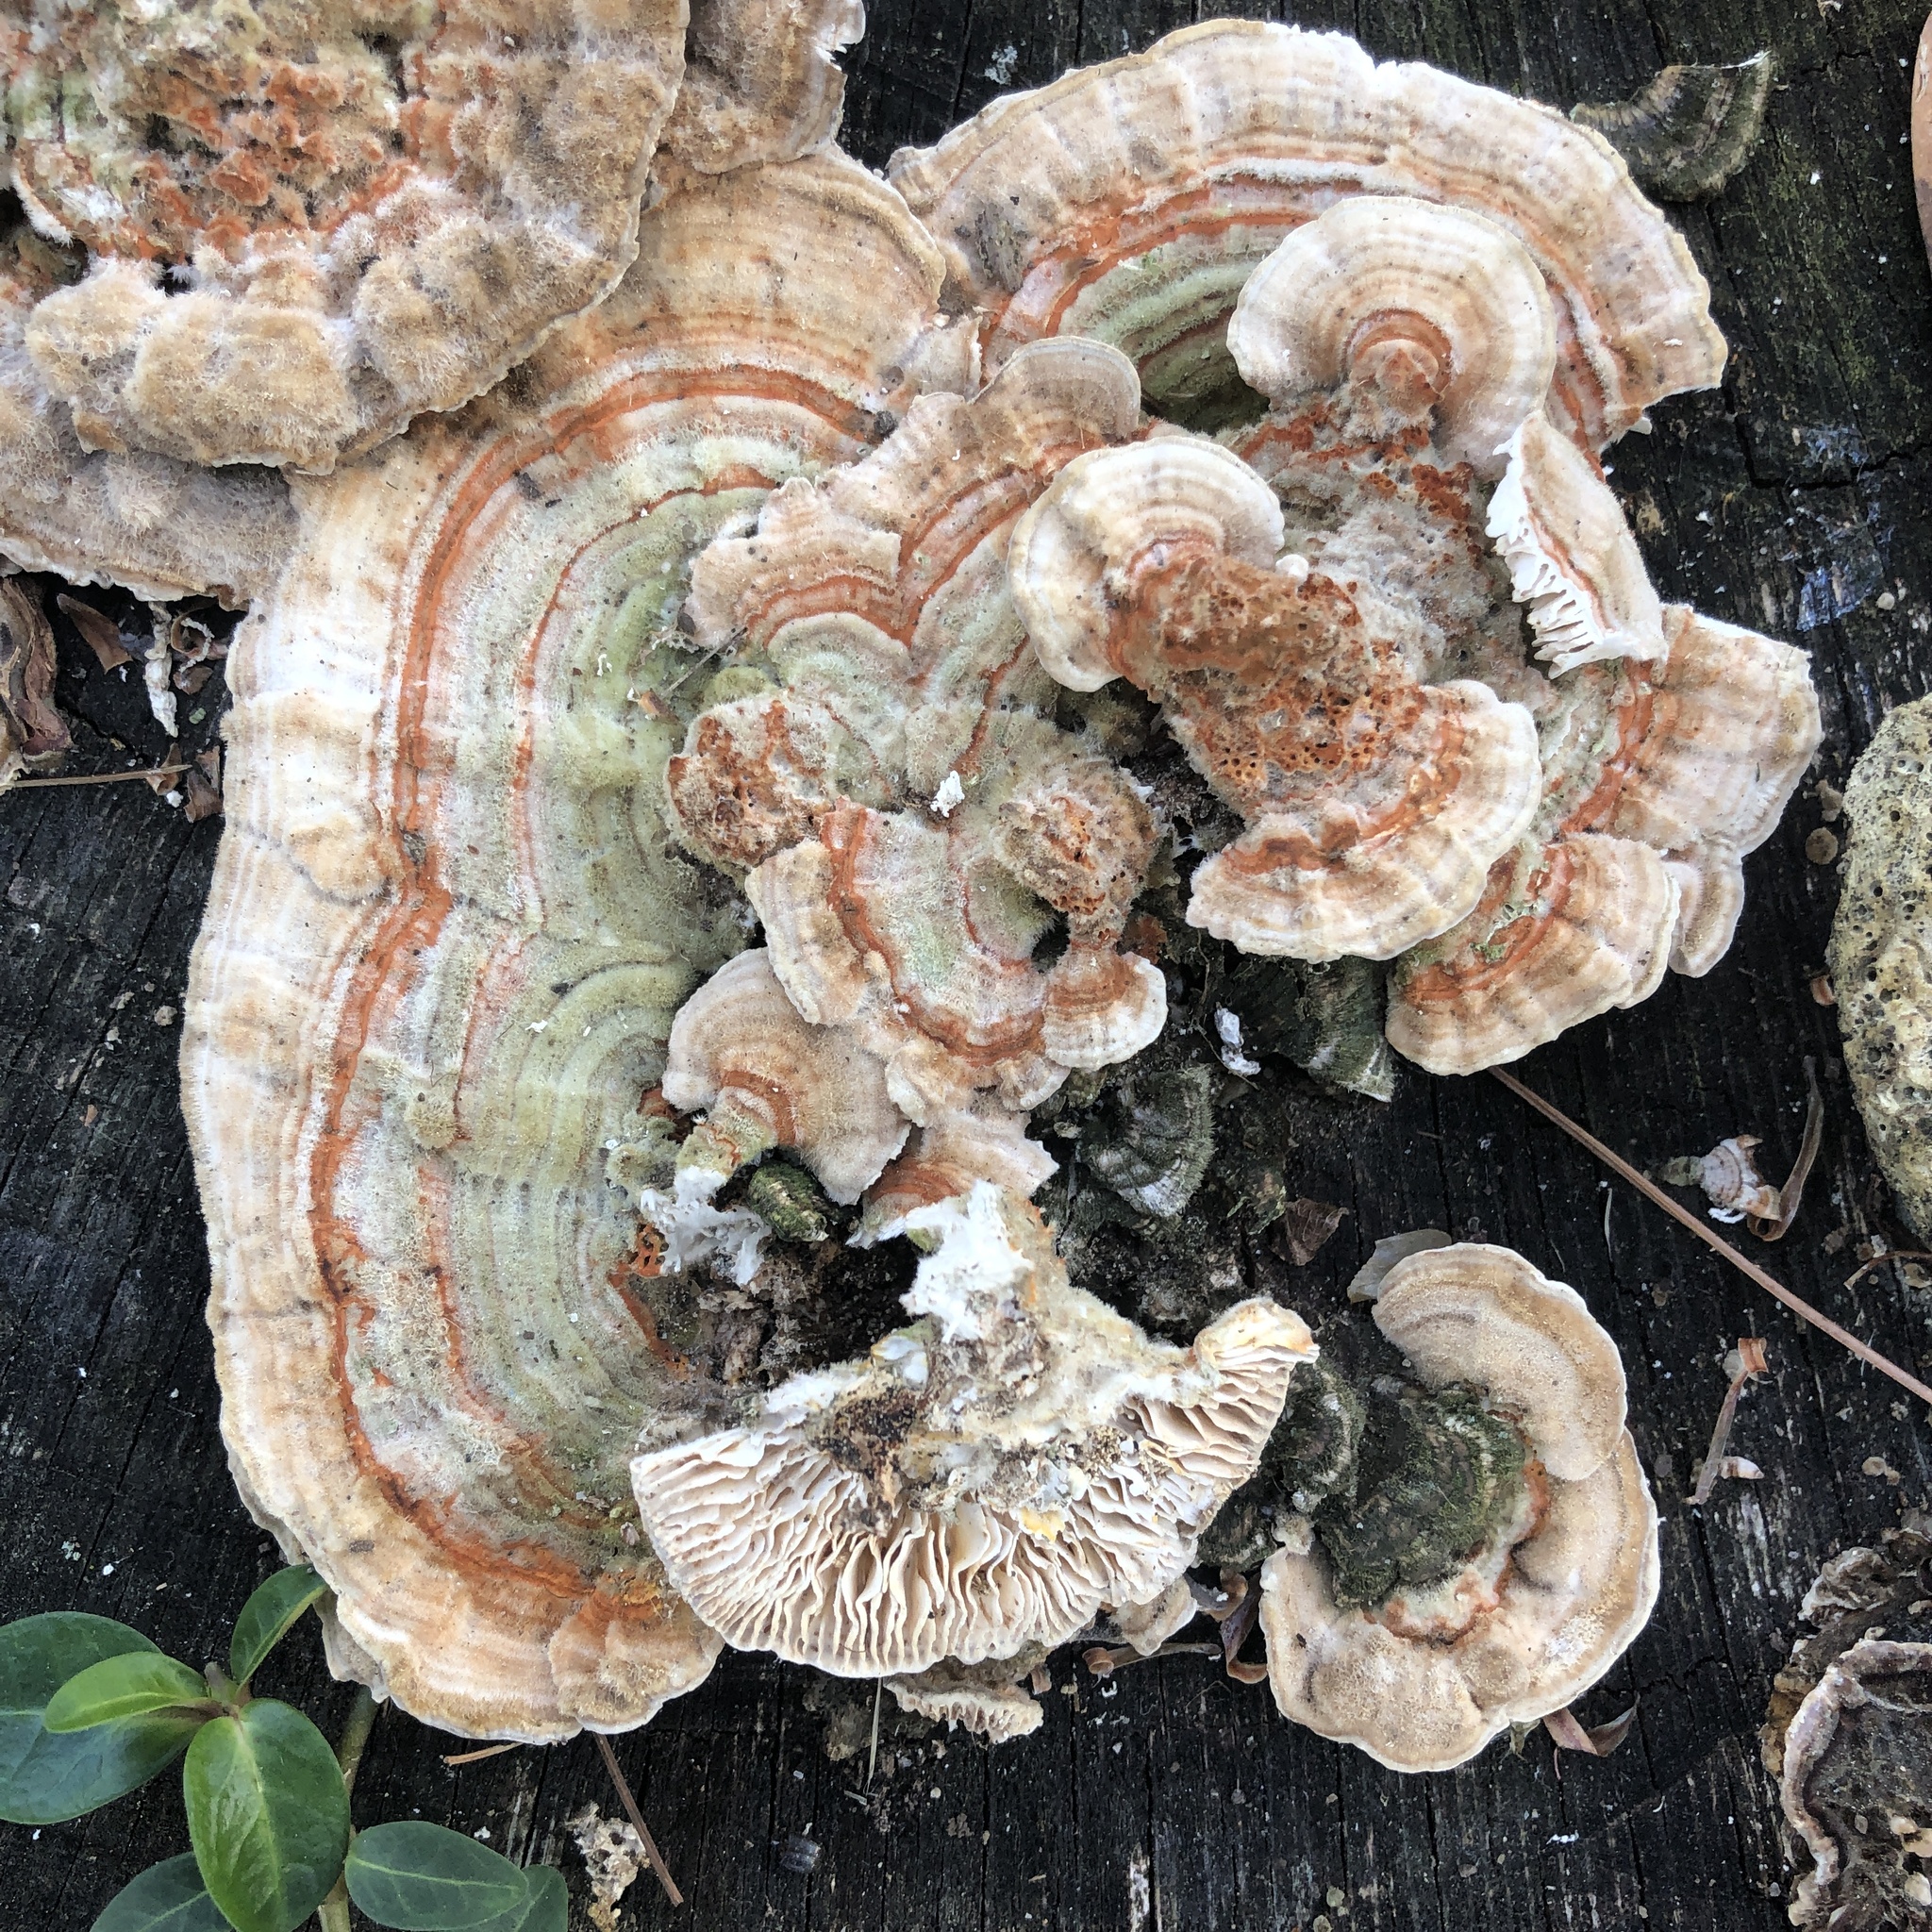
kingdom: Fungi
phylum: Basidiomycota
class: Agaricomycetes
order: Polyporales
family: Polyporaceae
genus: Lenzites
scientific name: Lenzites betulinus
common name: Birch mazegill
